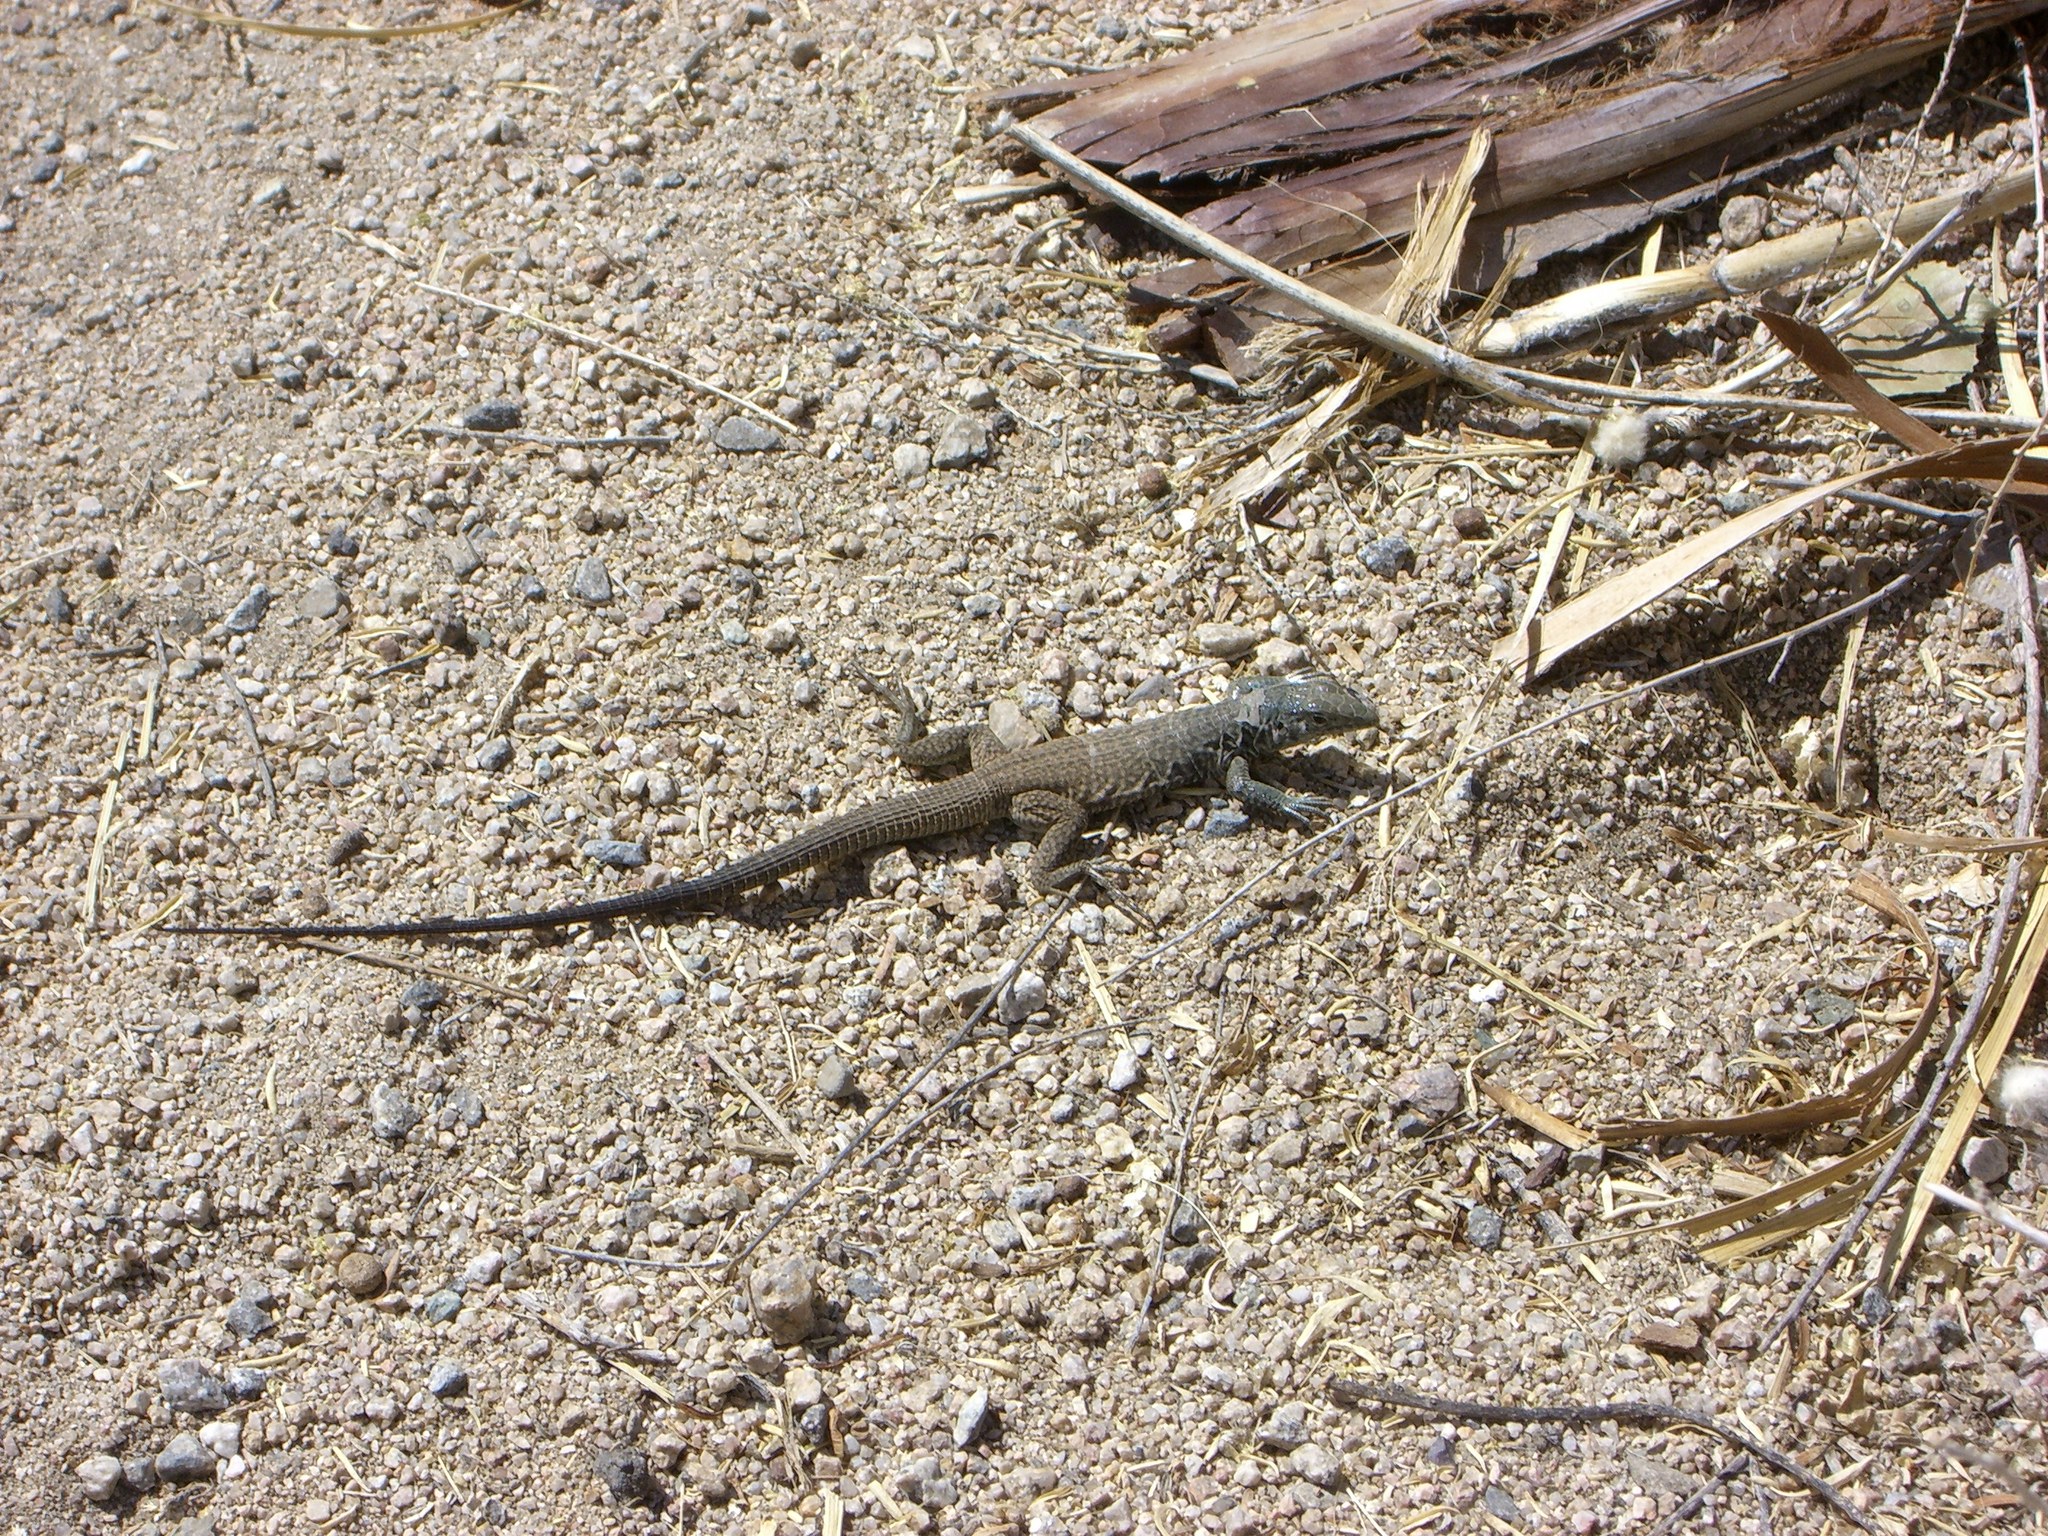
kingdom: Animalia
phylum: Chordata
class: Squamata
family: Teiidae
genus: Aspidoscelis
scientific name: Aspidoscelis tigris
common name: Tiger whiptail
